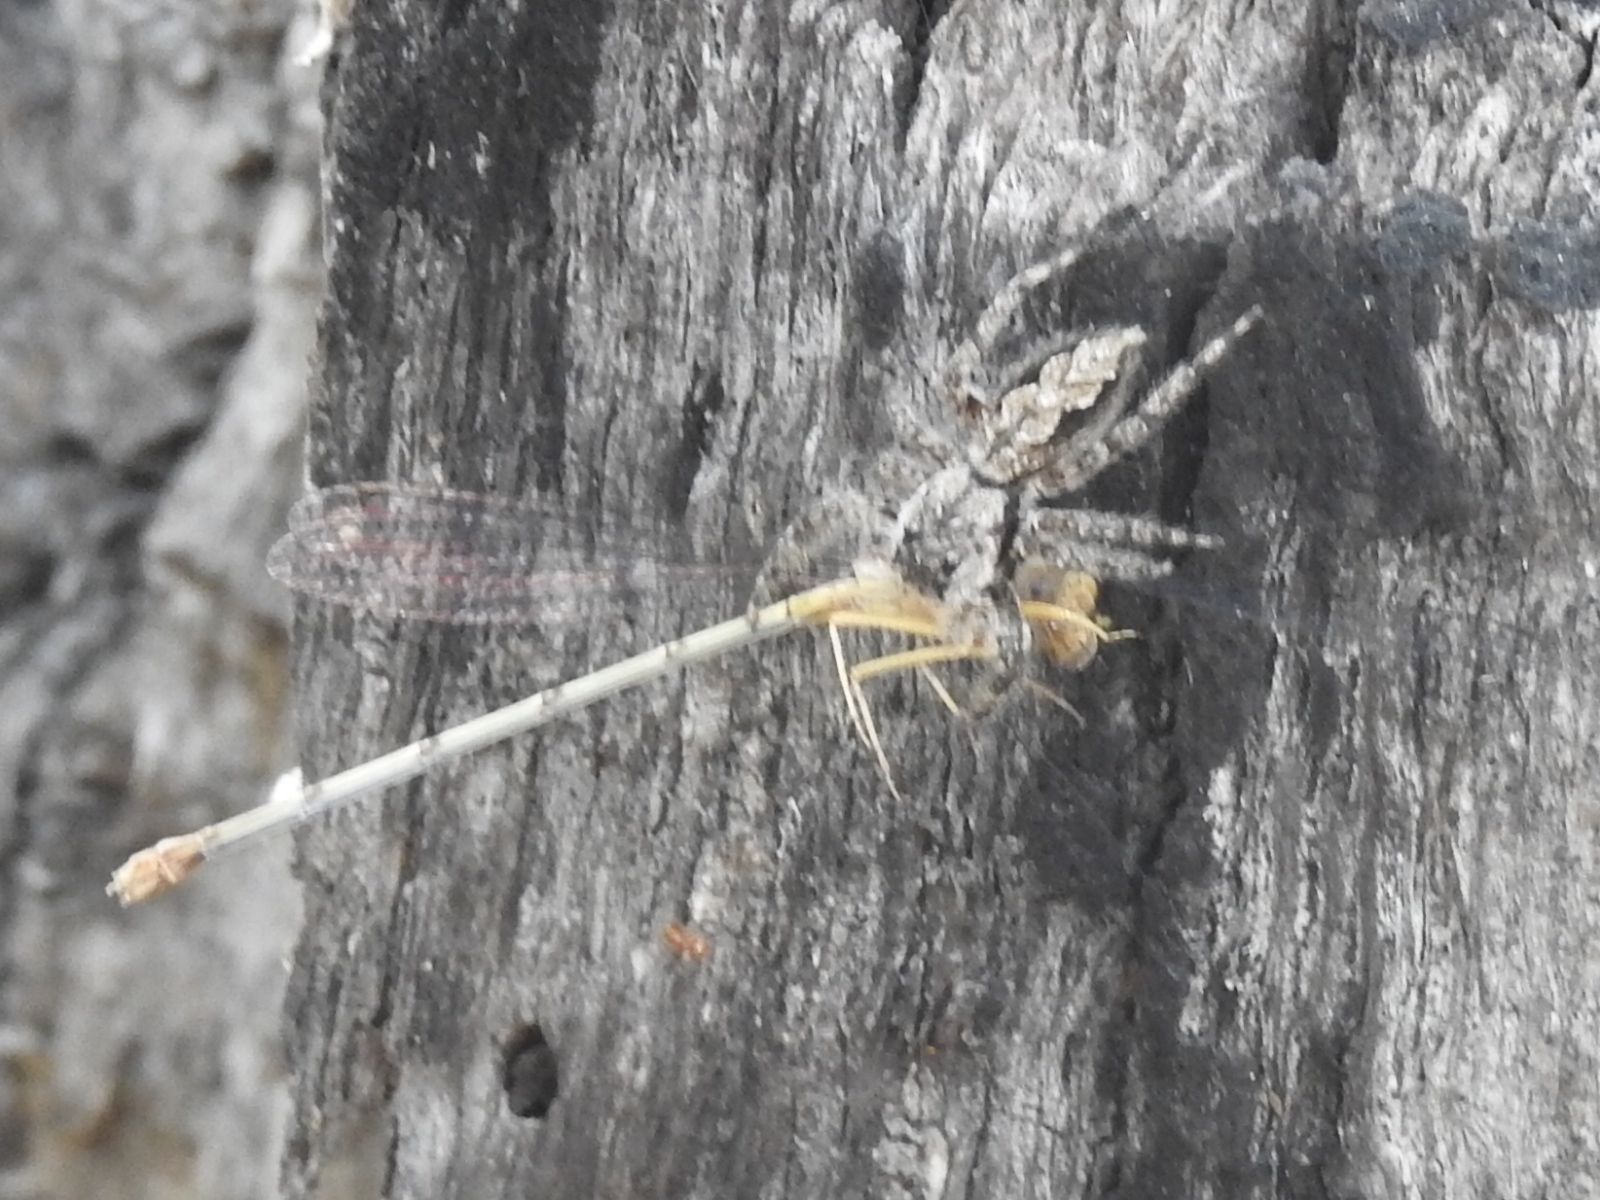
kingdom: Animalia
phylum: Arthropoda
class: Arachnida
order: Araneae
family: Salticidae
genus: Platycryptus
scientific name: Platycryptus undatus
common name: Tan jumping spider
